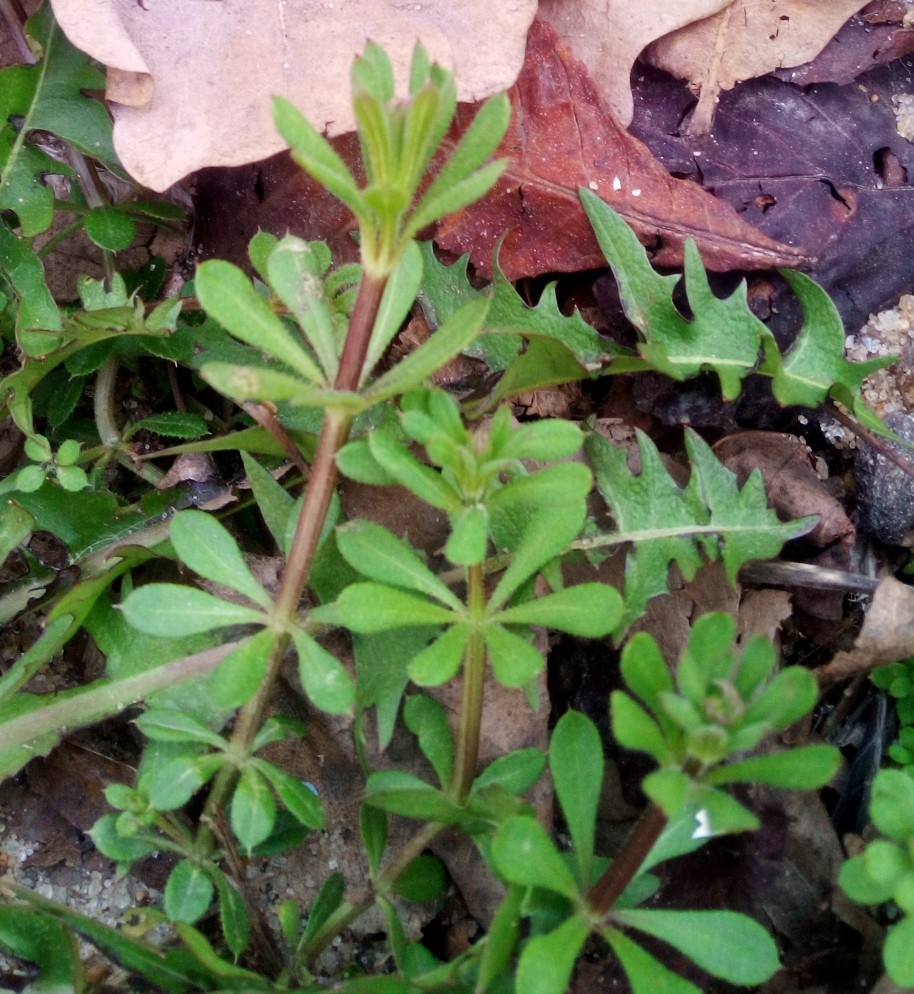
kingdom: Plantae
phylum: Tracheophyta
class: Magnoliopsida
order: Gentianales
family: Rubiaceae
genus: Galium
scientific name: Galium aparine
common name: Cleavers
